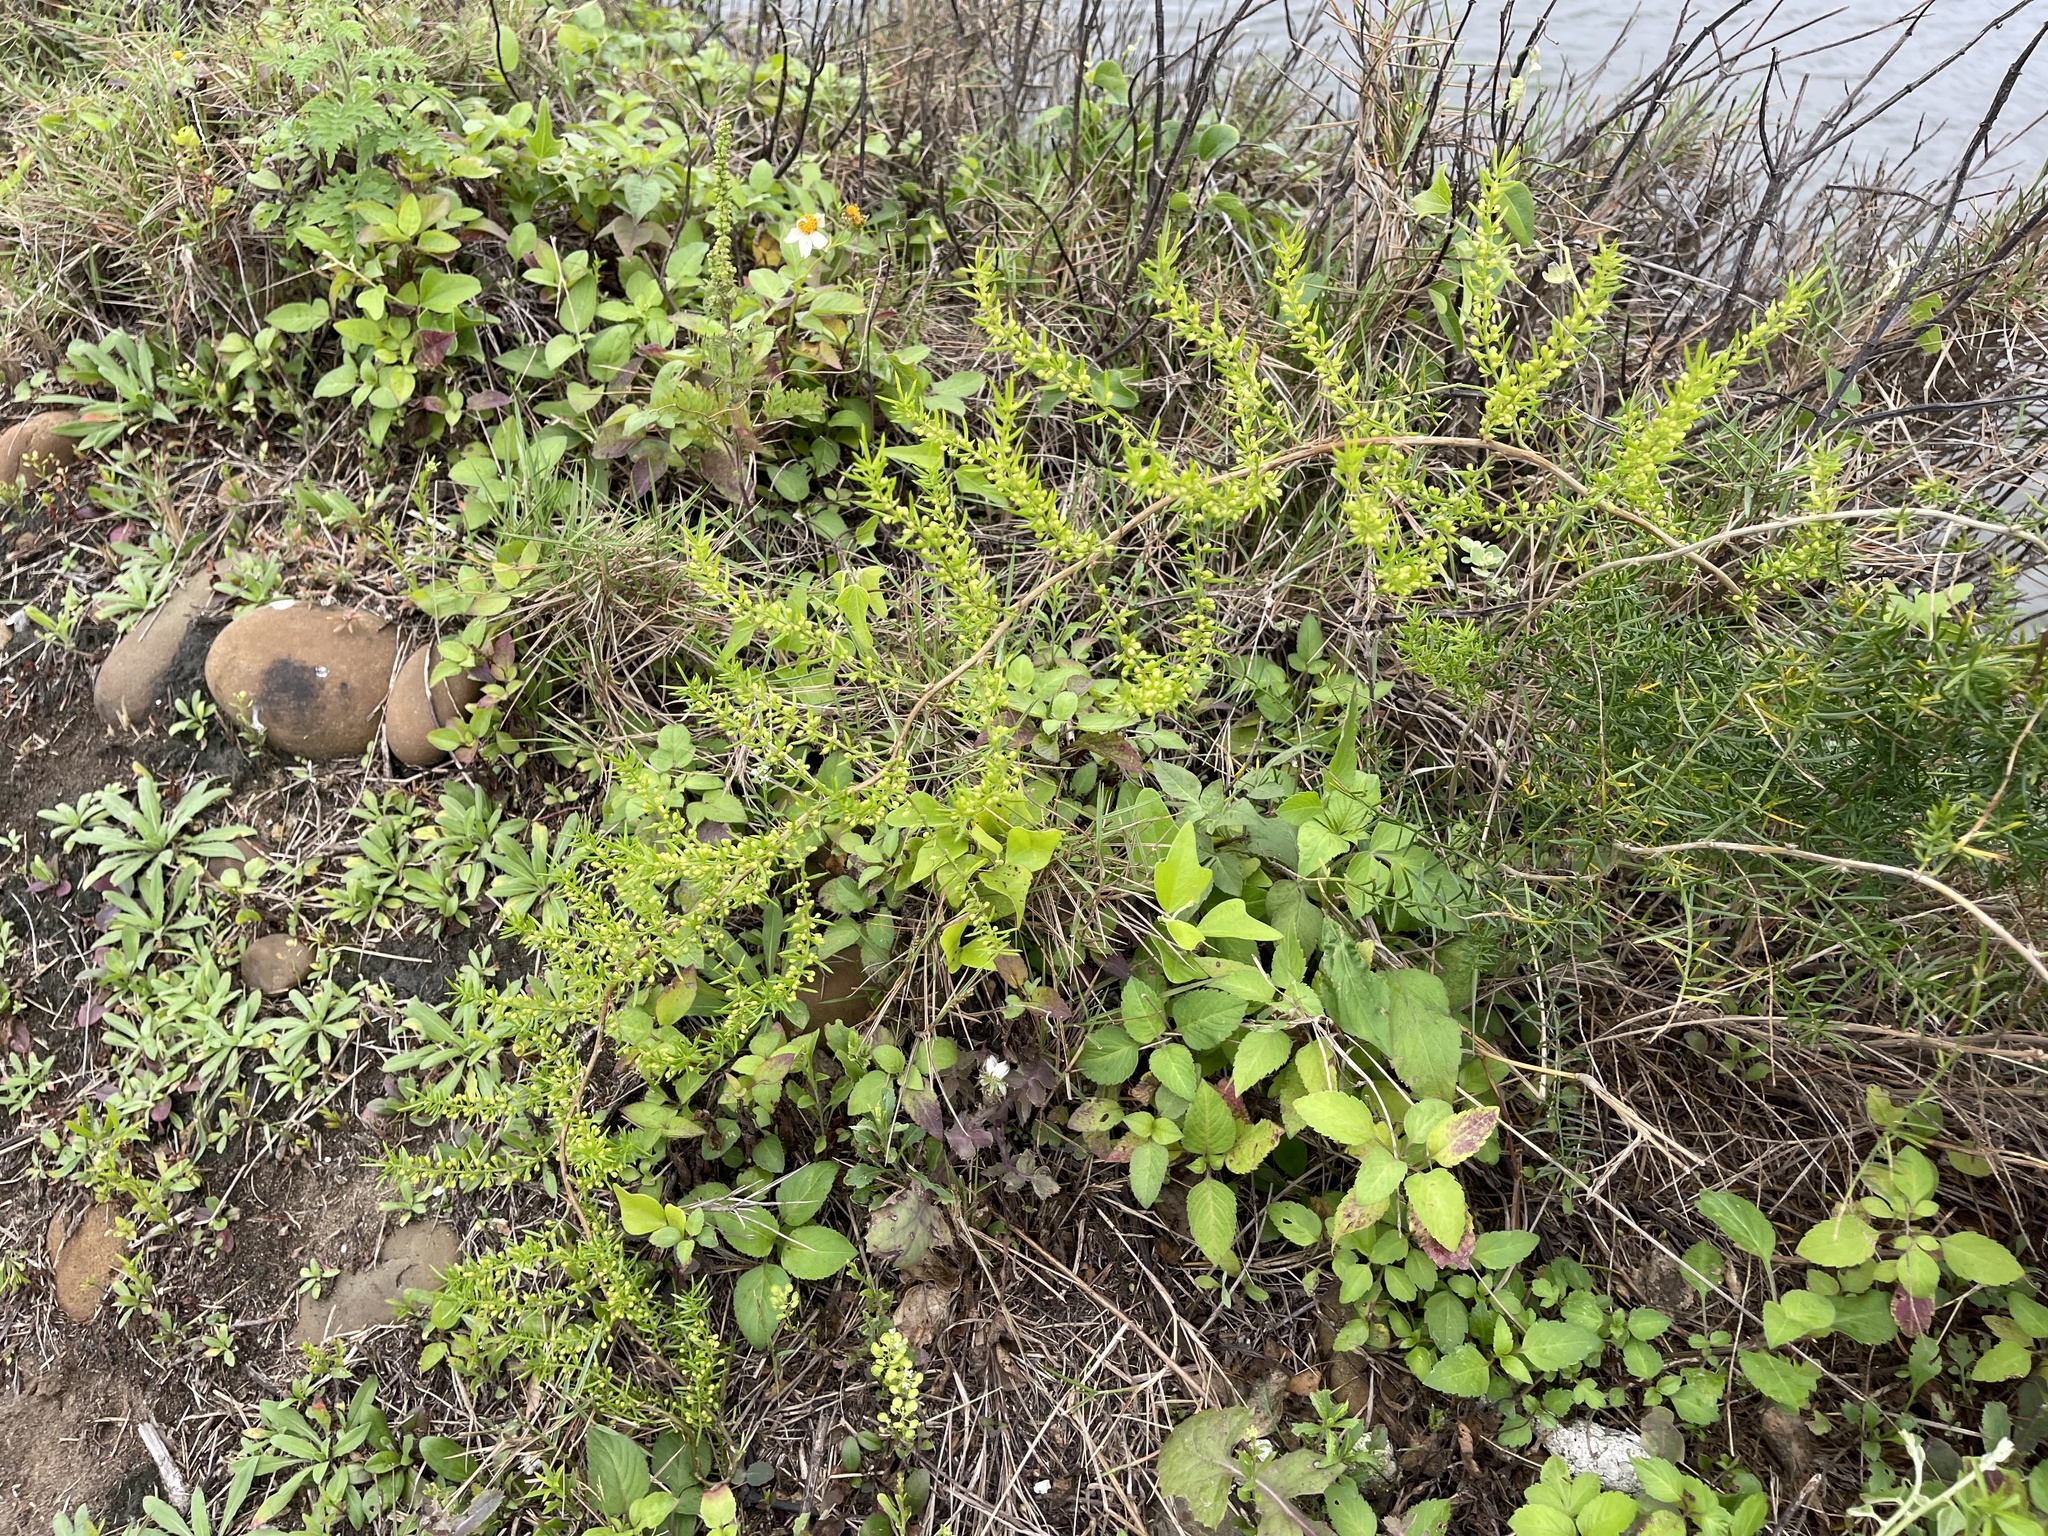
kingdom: Plantae
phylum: Tracheophyta
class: Liliopsida
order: Asparagales
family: Asparagaceae
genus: Asparagus
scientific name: Asparagus cochinchinensis
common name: Chinese asparagus
